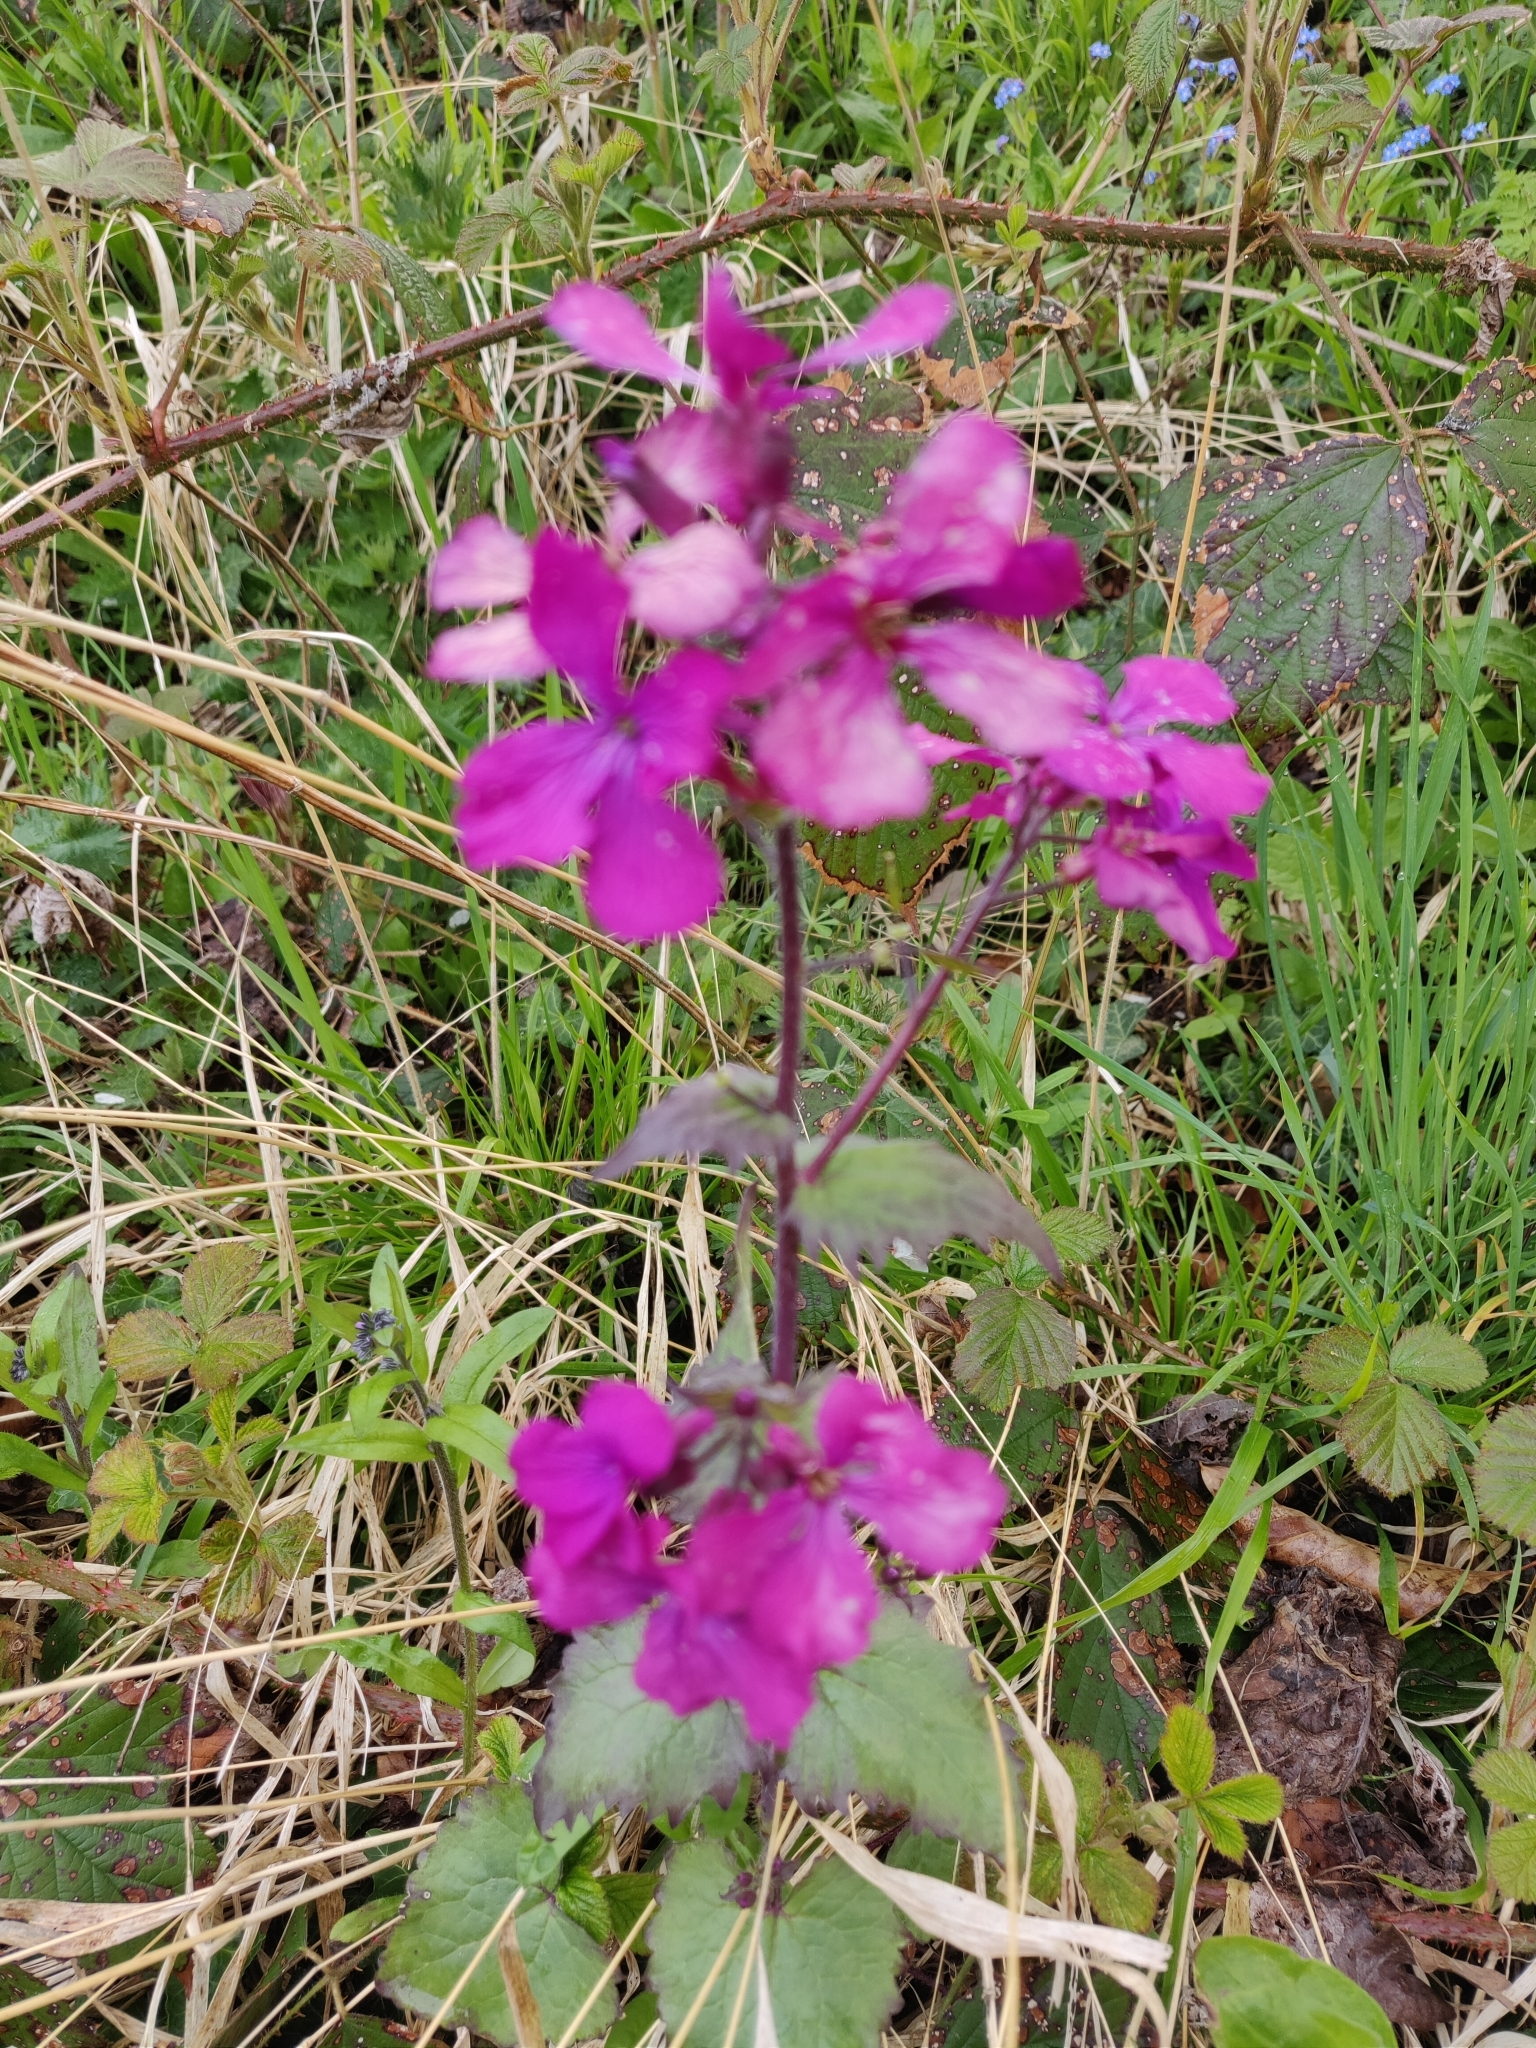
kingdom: Plantae
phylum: Tracheophyta
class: Magnoliopsida
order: Brassicales
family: Brassicaceae
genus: Lunaria
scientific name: Lunaria annua
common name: Honesty
